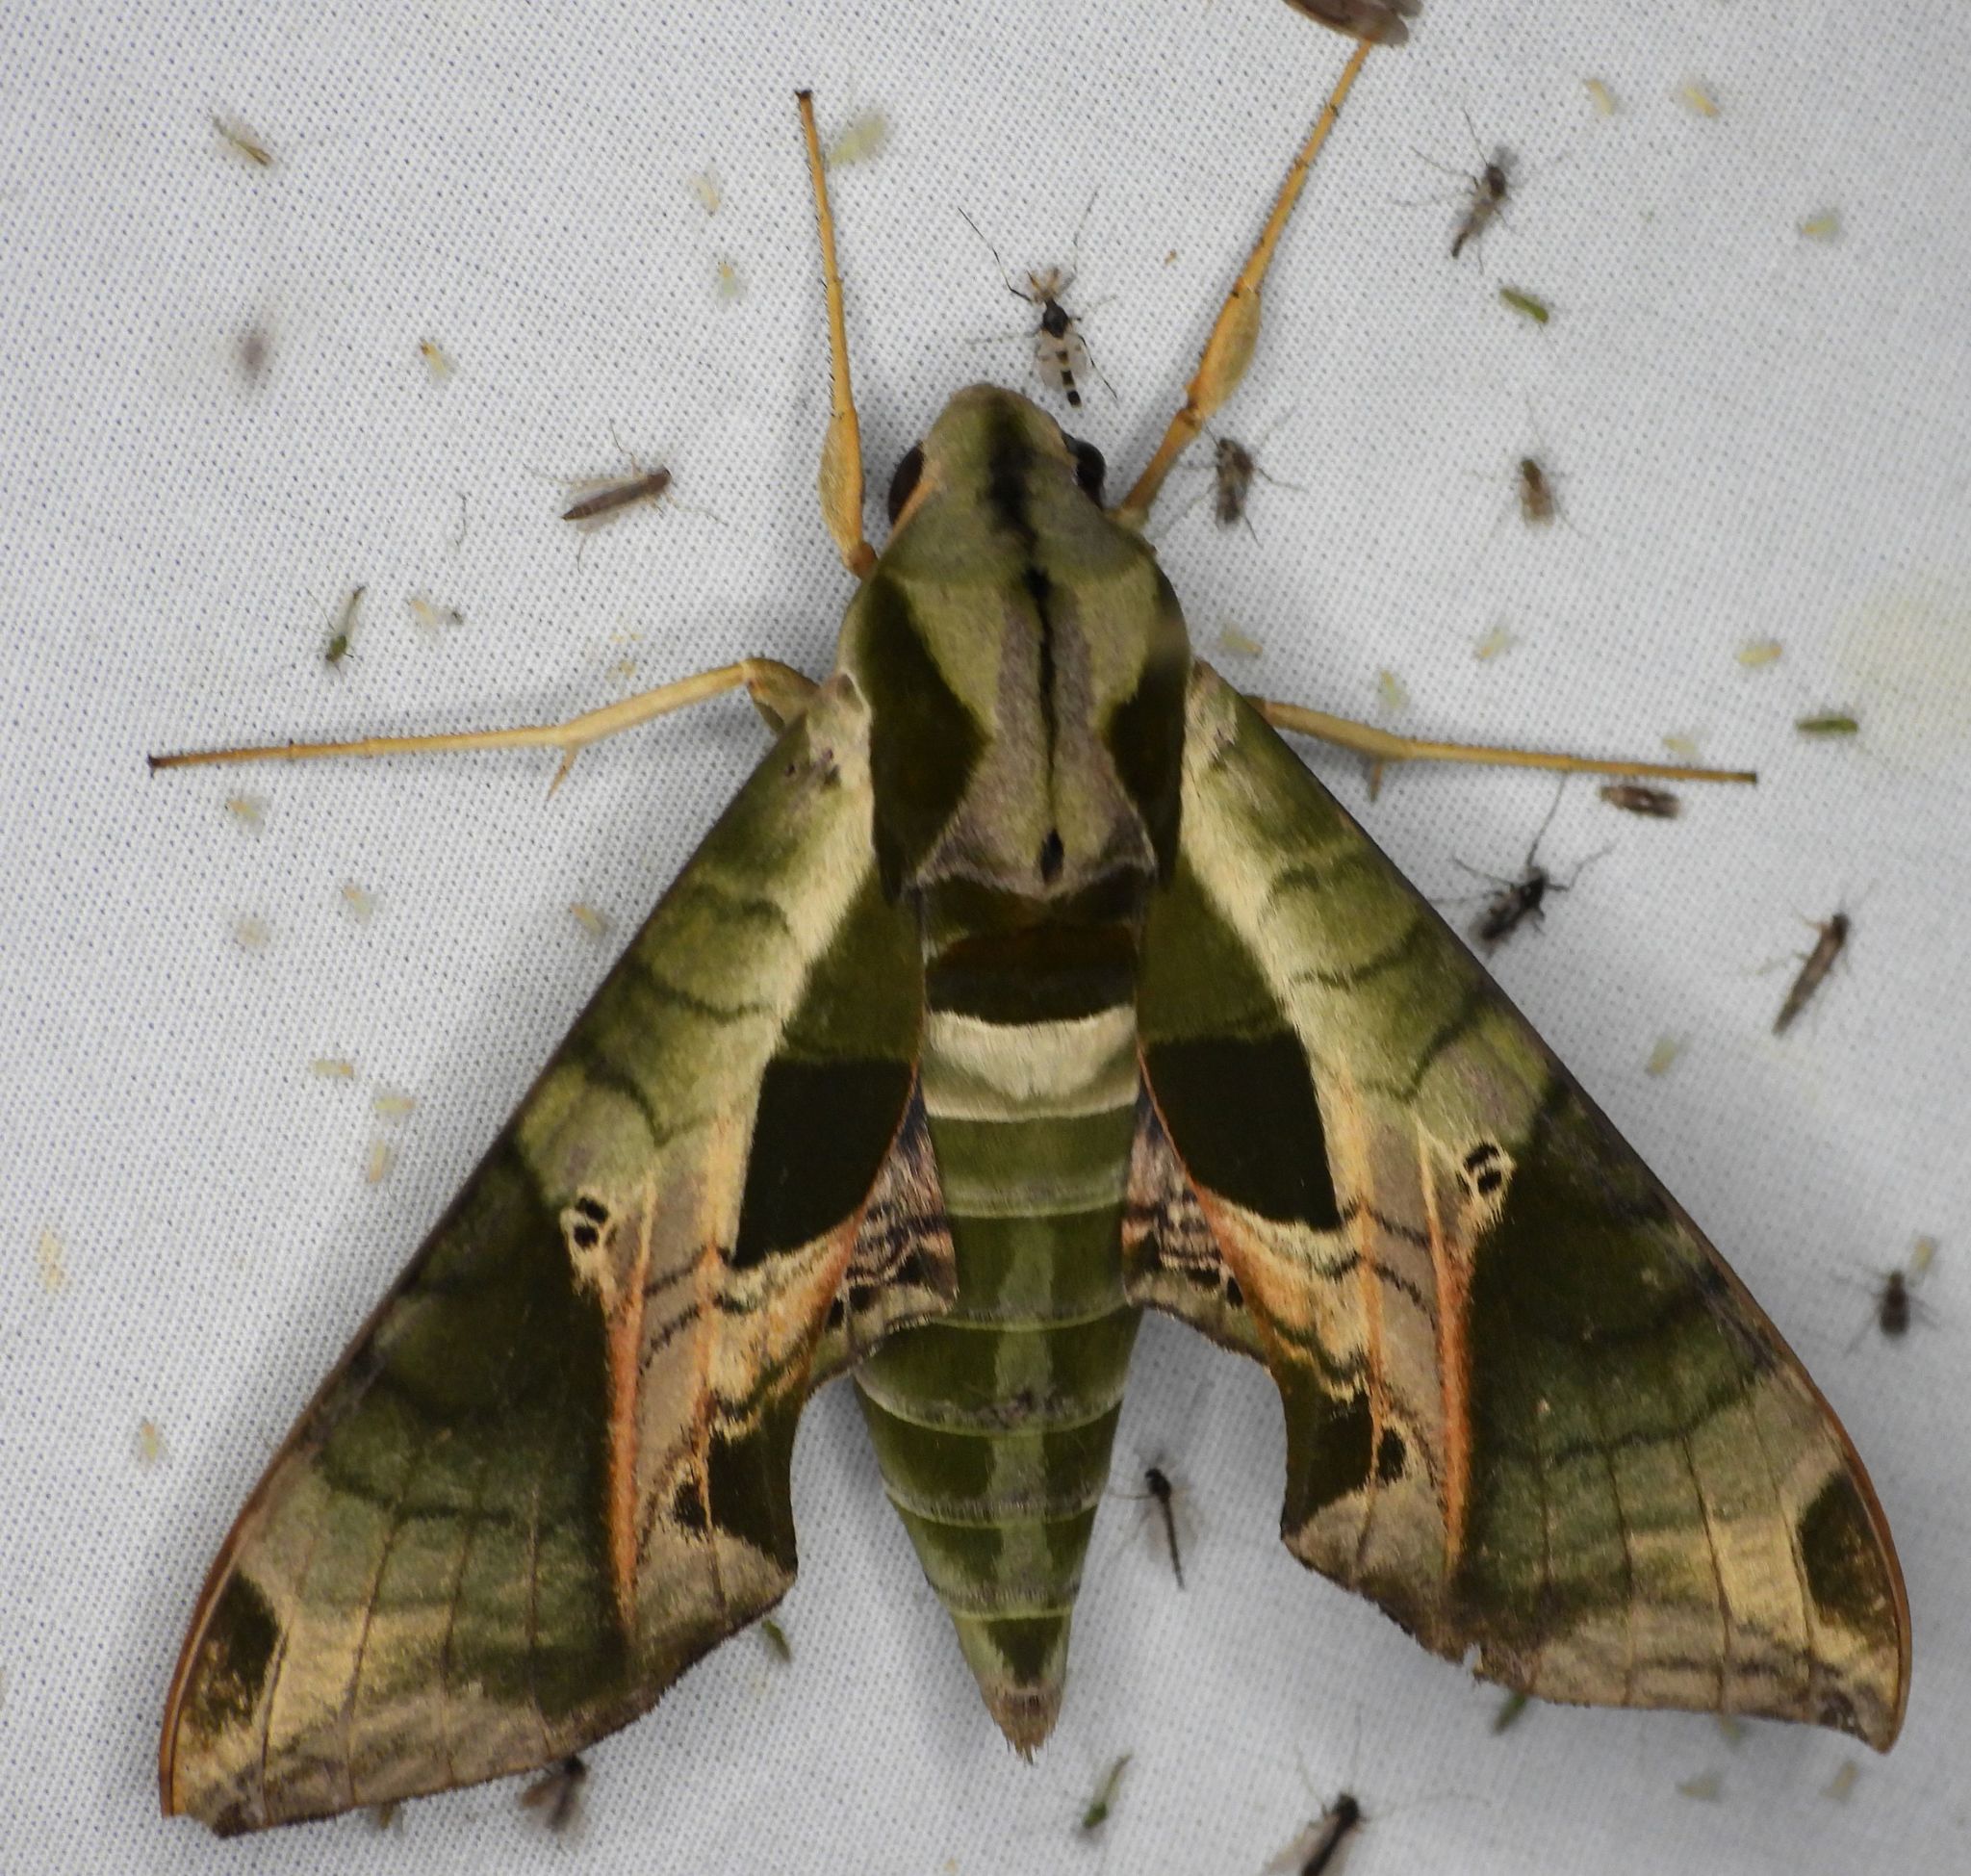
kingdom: Animalia
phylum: Arthropoda
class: Insecta
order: Lepidoptera
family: Sphingidae
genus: Eumorpha
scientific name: Eumorpha pandorus
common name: Pandora sphinx
